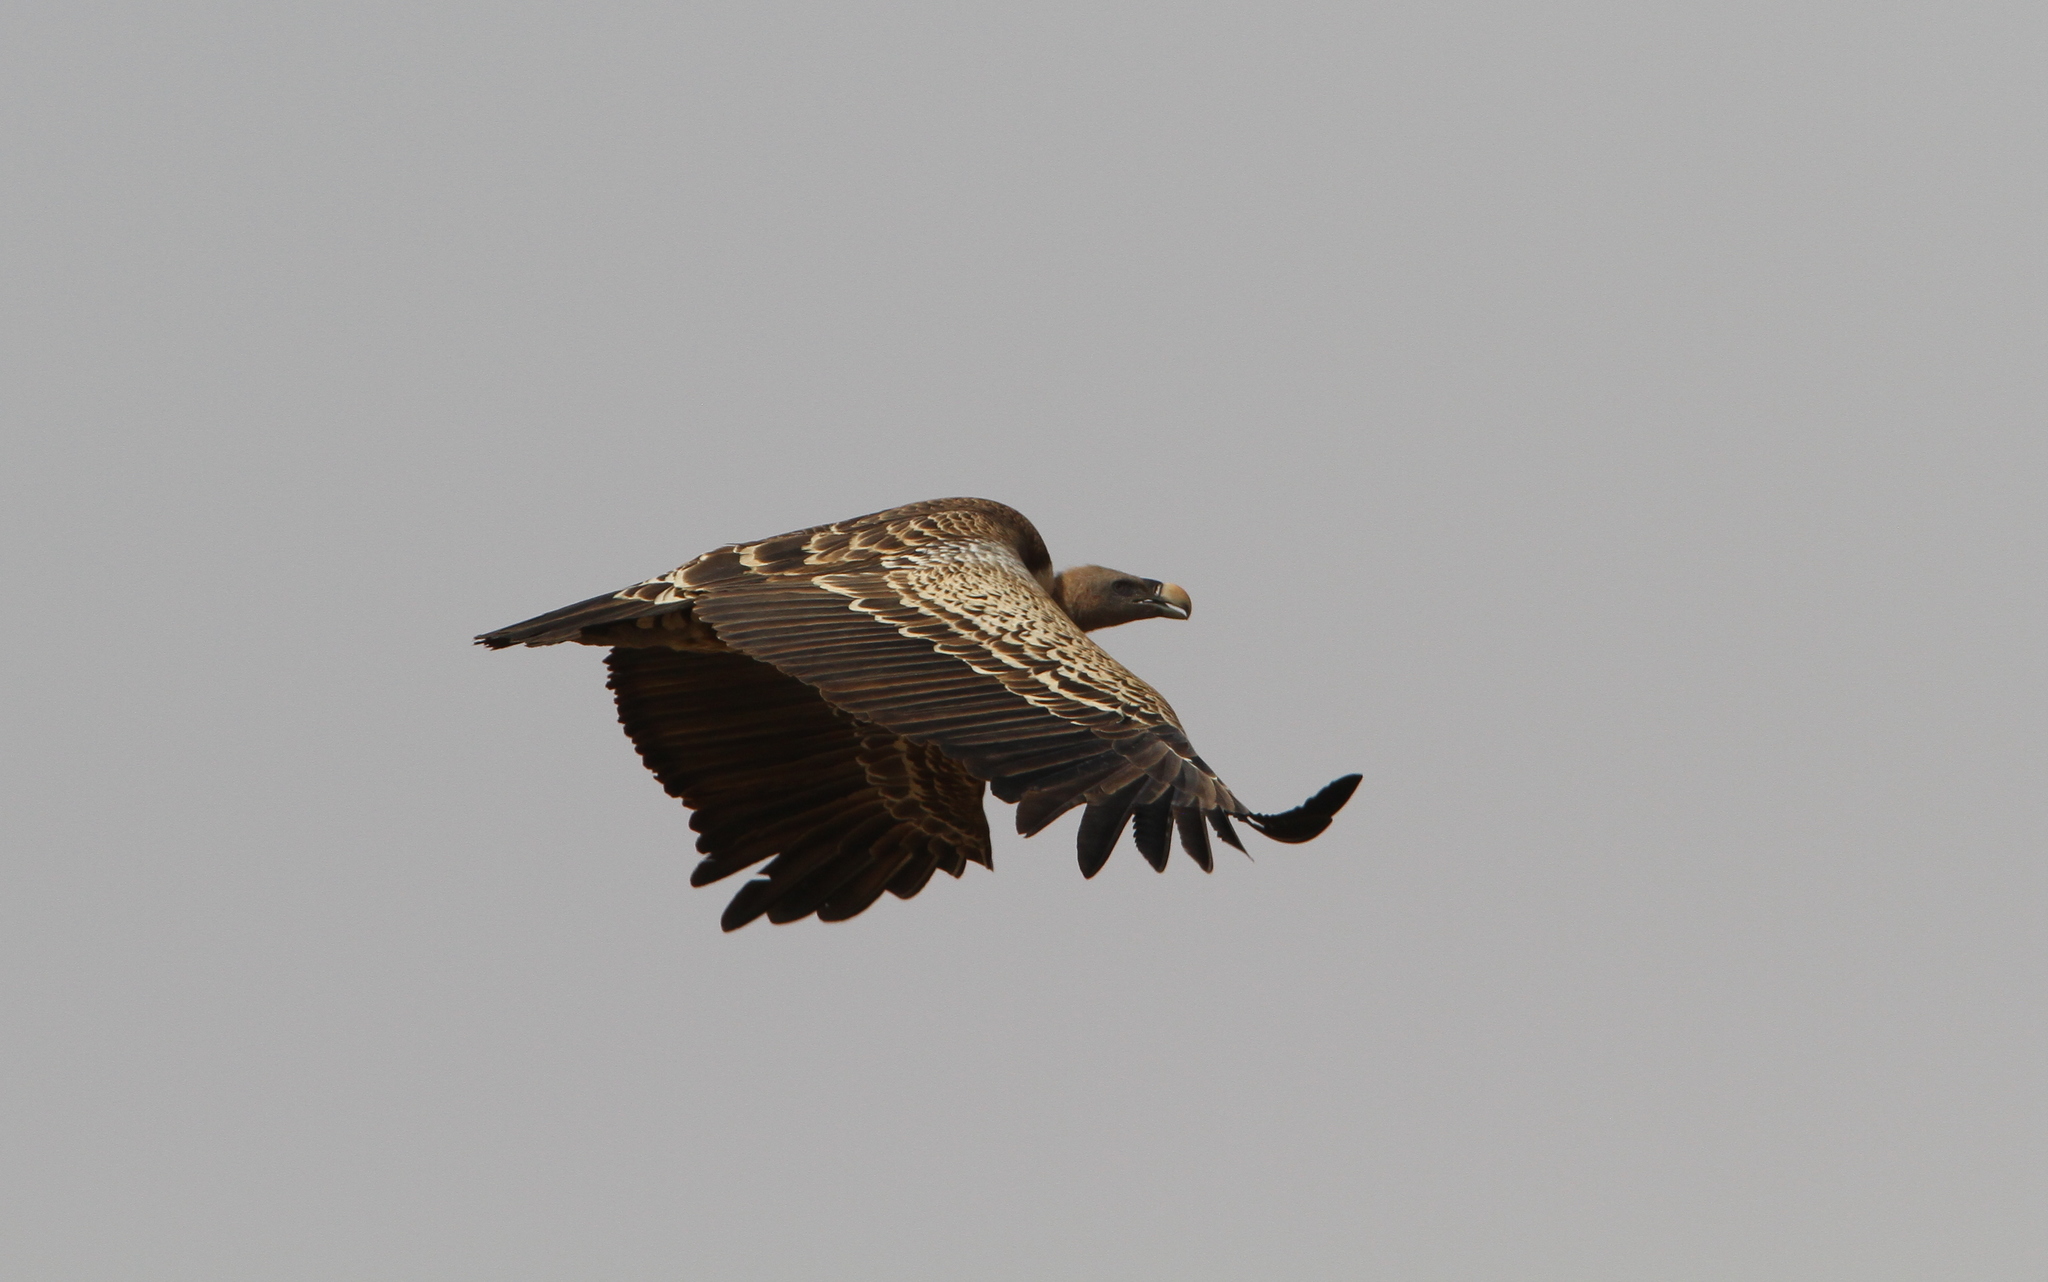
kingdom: Animalia
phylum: Chordata
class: Aves
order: Accipitriformes
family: Accipitridae
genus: Gyps
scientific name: Gyps rueppellii
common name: Rüppell's vulture
